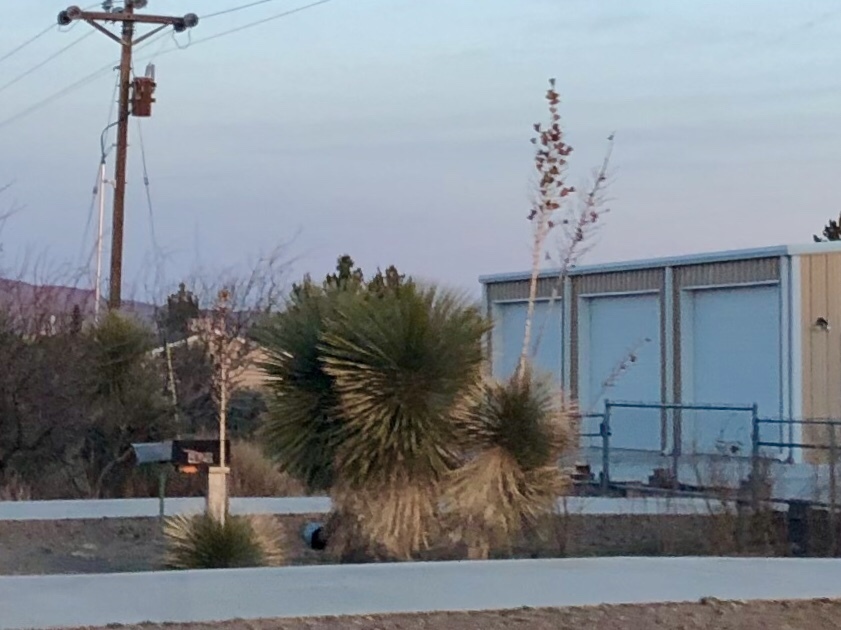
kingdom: Plantae
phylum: Tracheophyta
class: Liliopsida
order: Asparagales
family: Asparagaceae
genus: Yucca
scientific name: Yucca elata
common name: Palmella
